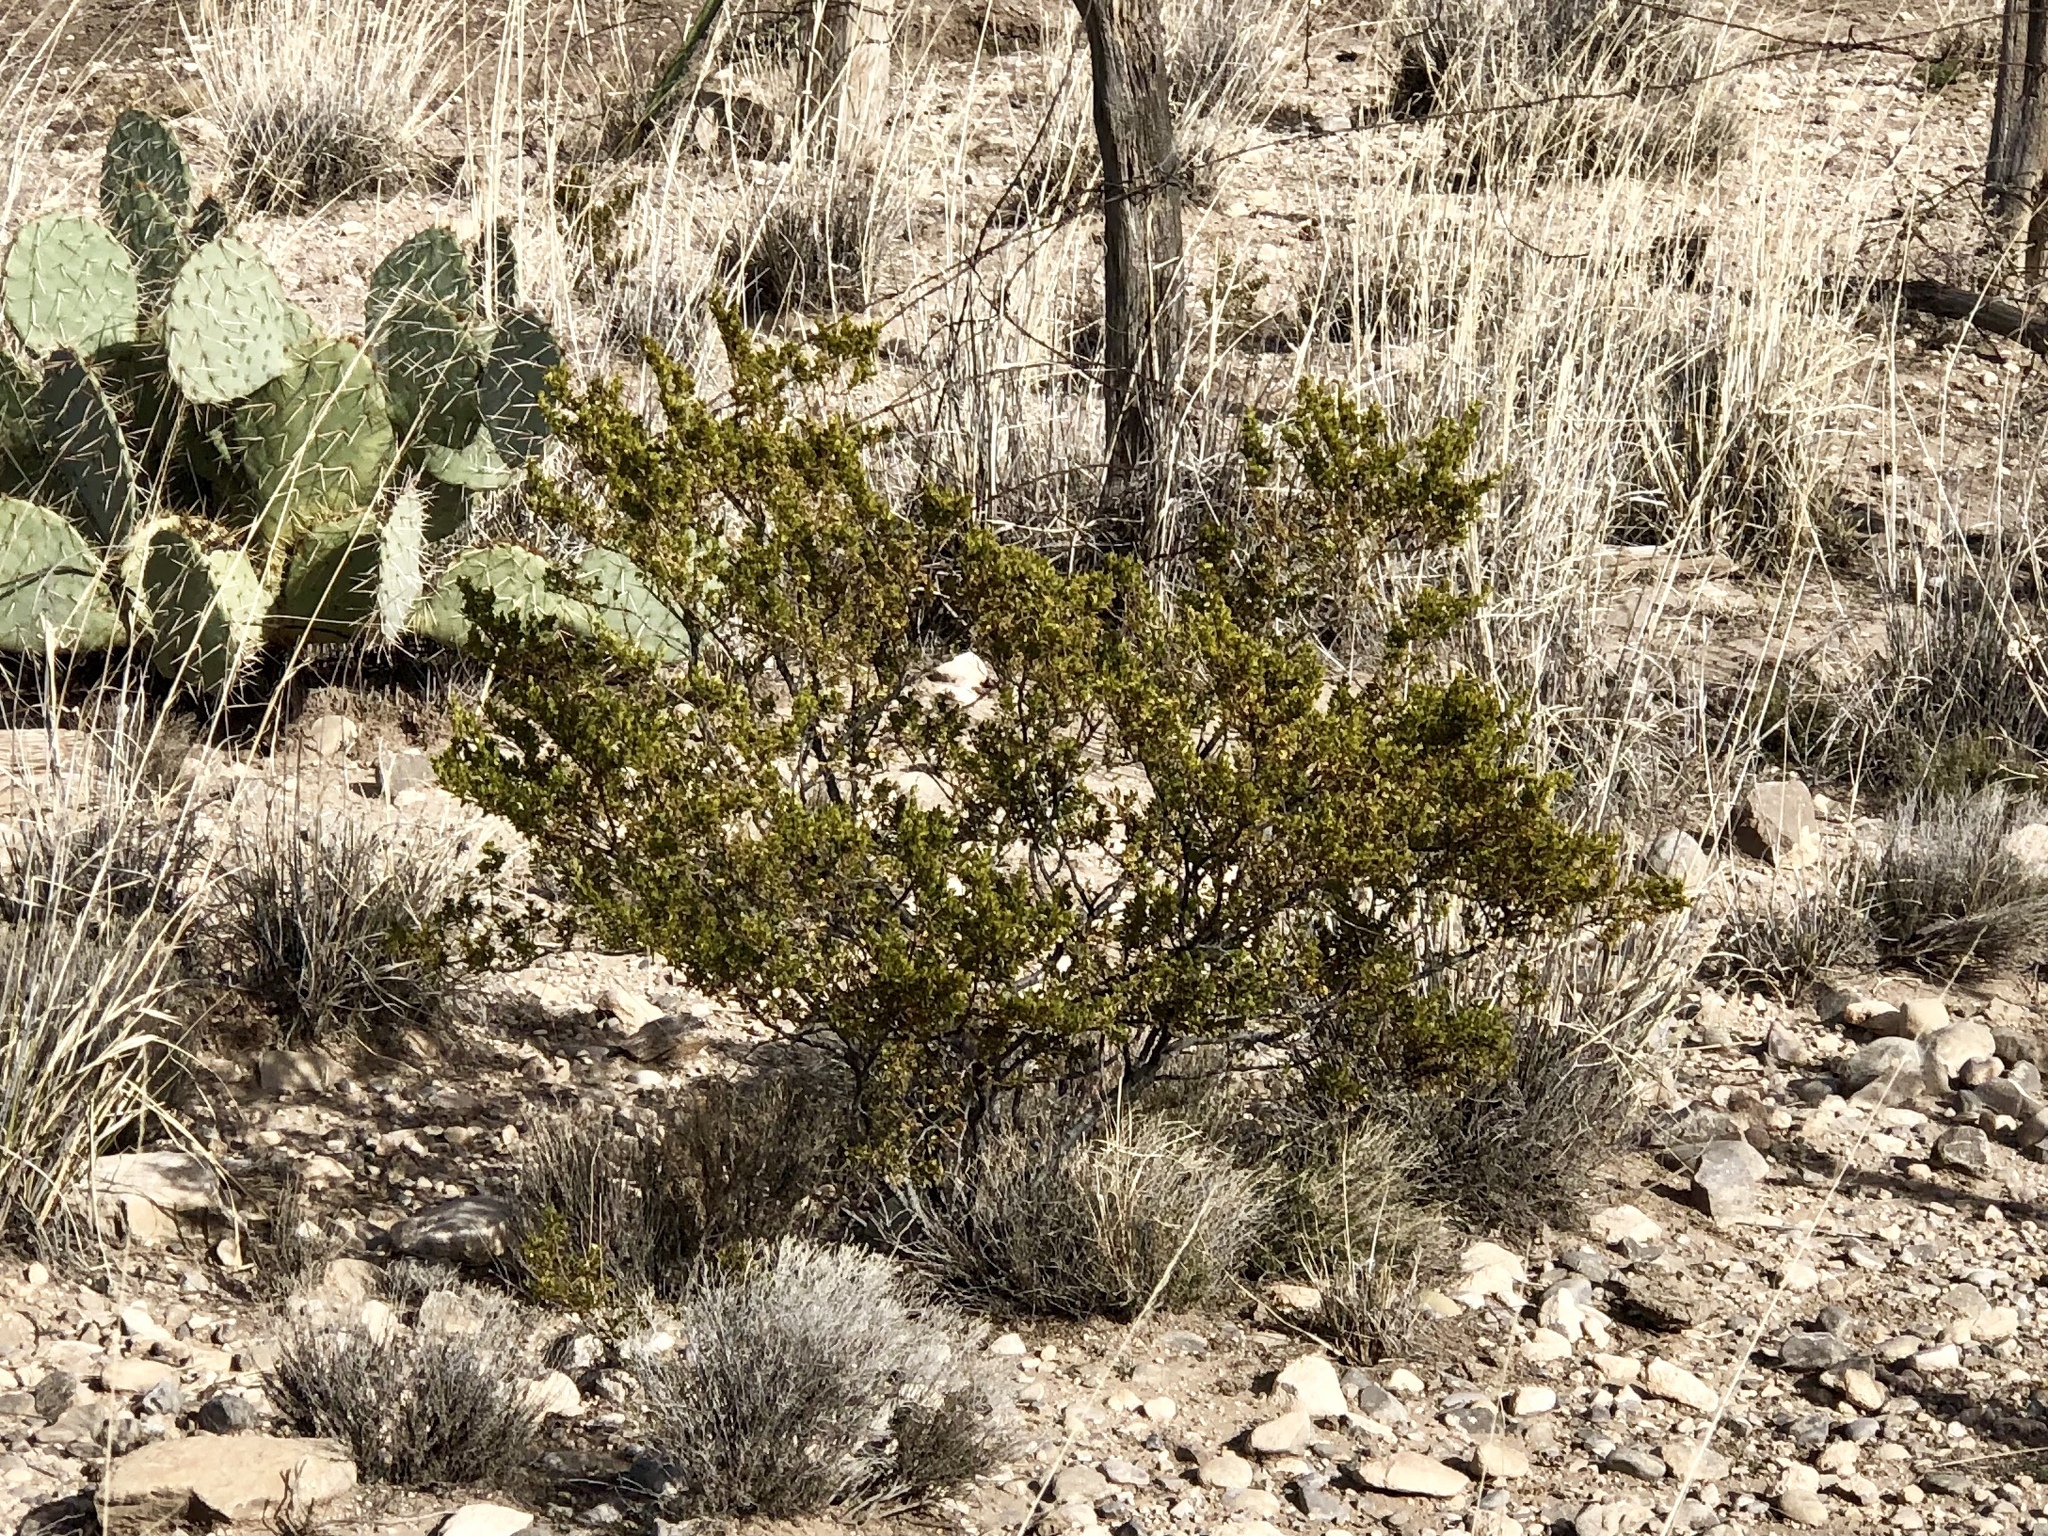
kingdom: Plantae
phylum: Tracheophyta
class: Magnoliopsida
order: Zygophyllales
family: Zygophyllaceae
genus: Larrea
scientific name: Larrea tridentata
